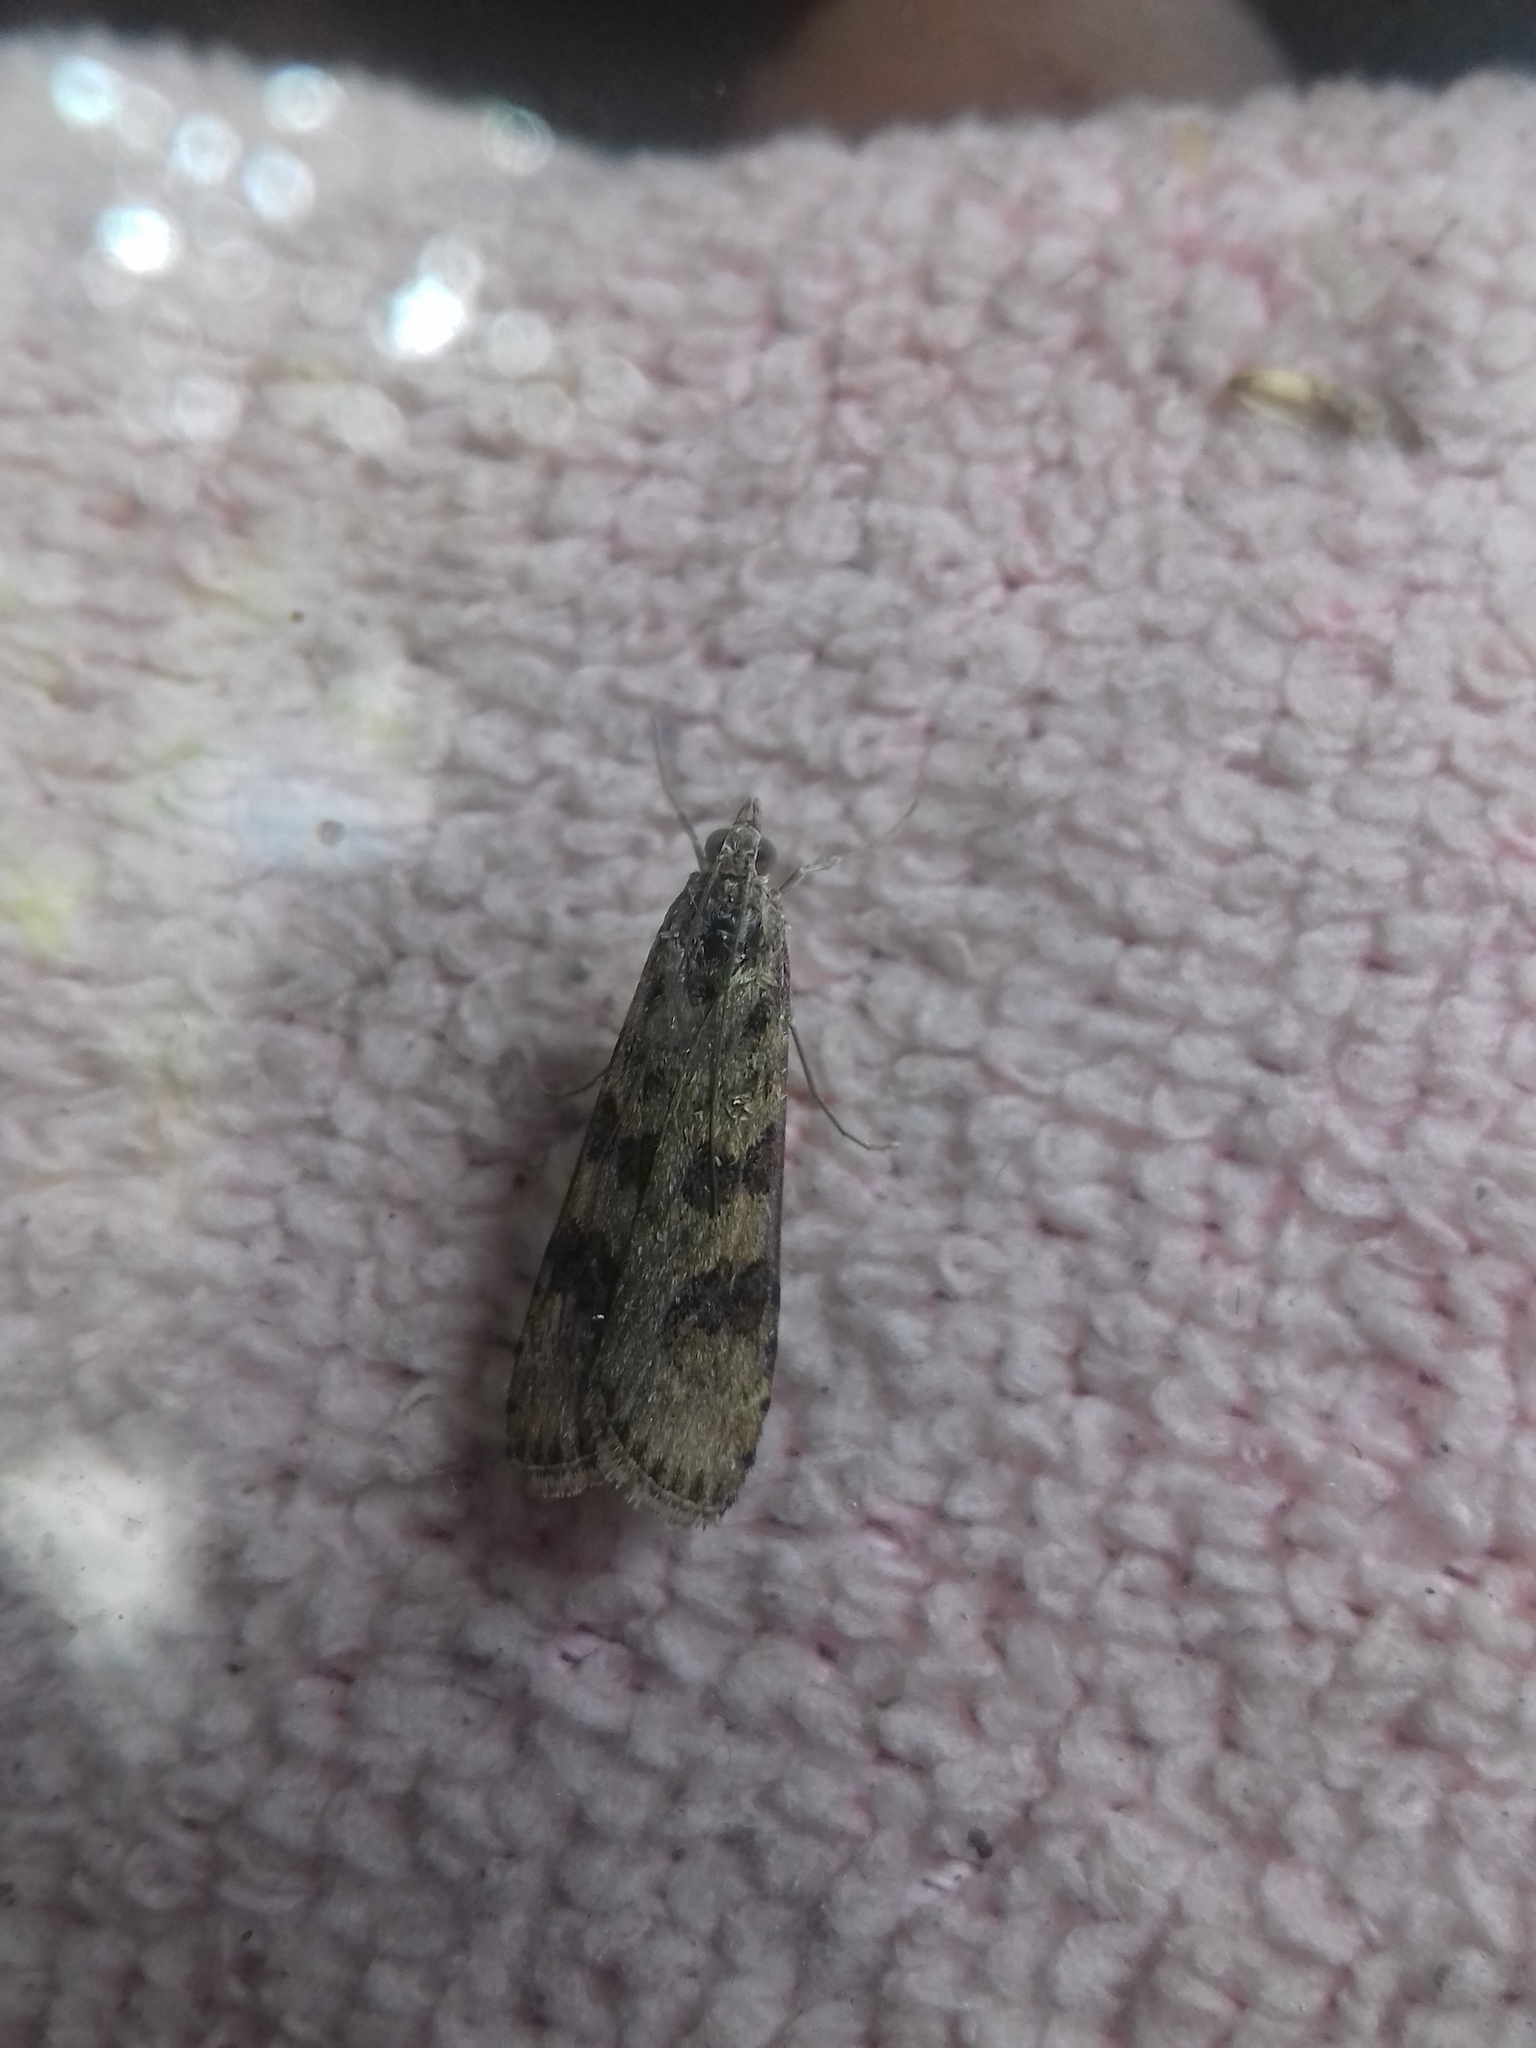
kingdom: Animalia
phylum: Arthropoda
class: Insecta
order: Lepidoptera
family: Crambidae
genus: Nomophila
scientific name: Nomophila noctuella
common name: Rush veneer
